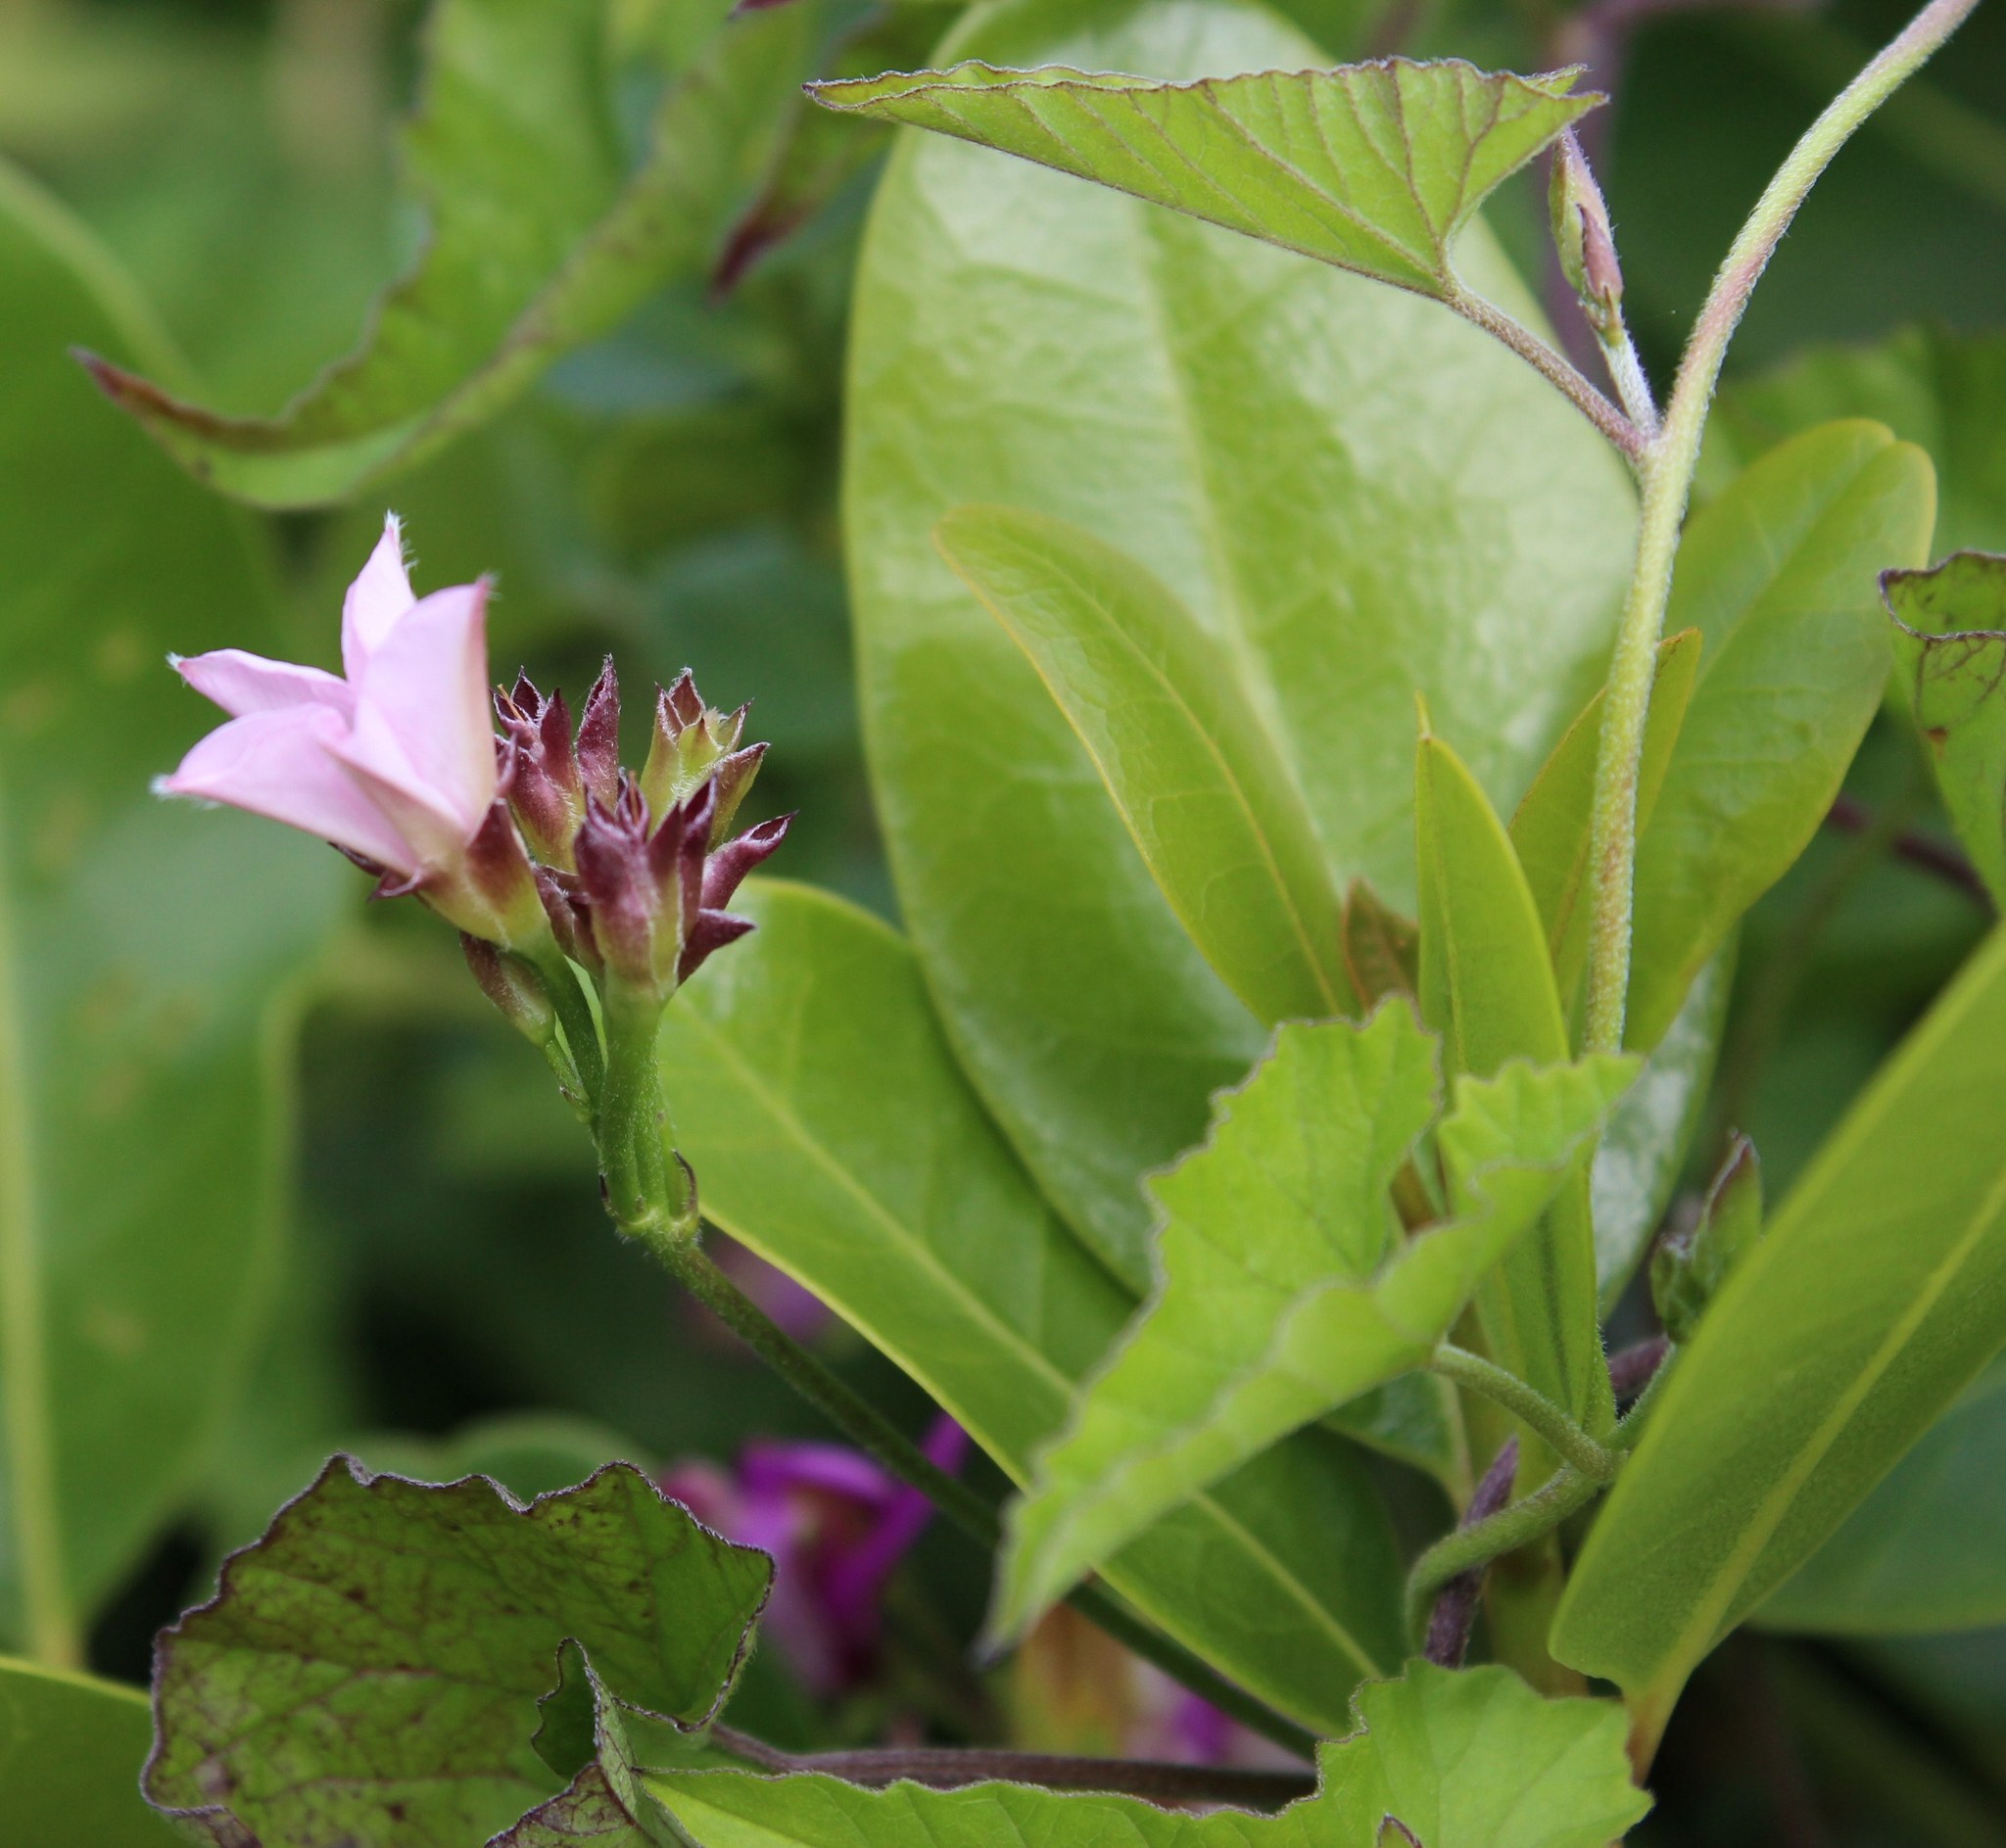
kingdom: Plantae
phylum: Tracheophyta
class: Magnoliopsida
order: Solanales
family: Convolvulaceae
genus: Convolvulus
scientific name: Convolvulus farinosus
